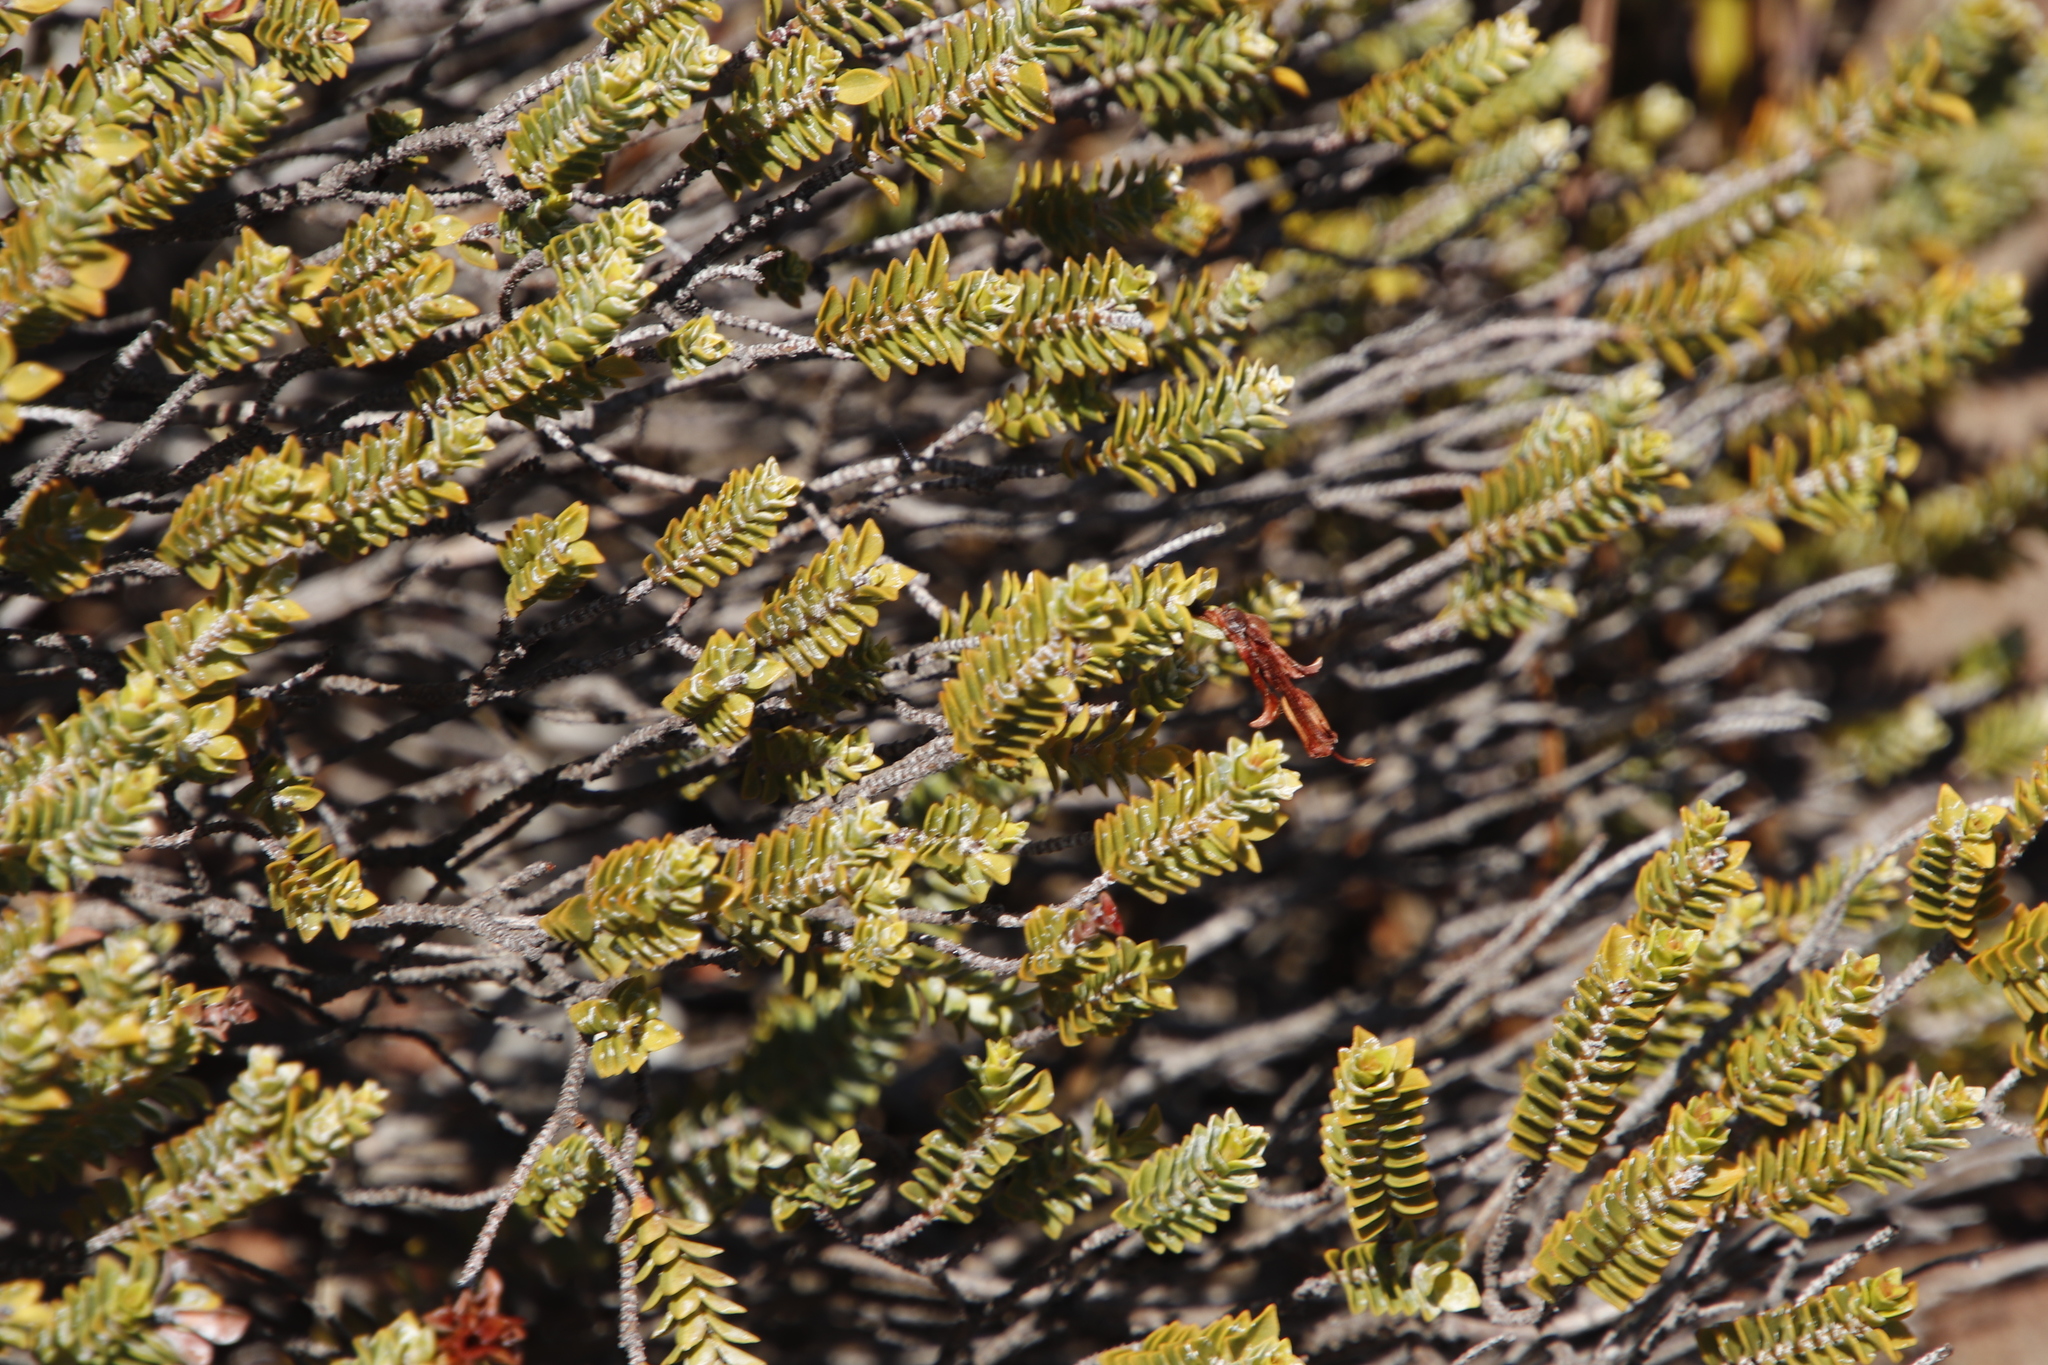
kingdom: Plantae
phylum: Tracheophyta
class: Magnoliopsida
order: Myrtales
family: Penaeaceae
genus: Saltera
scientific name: Saltera sarcocolla
